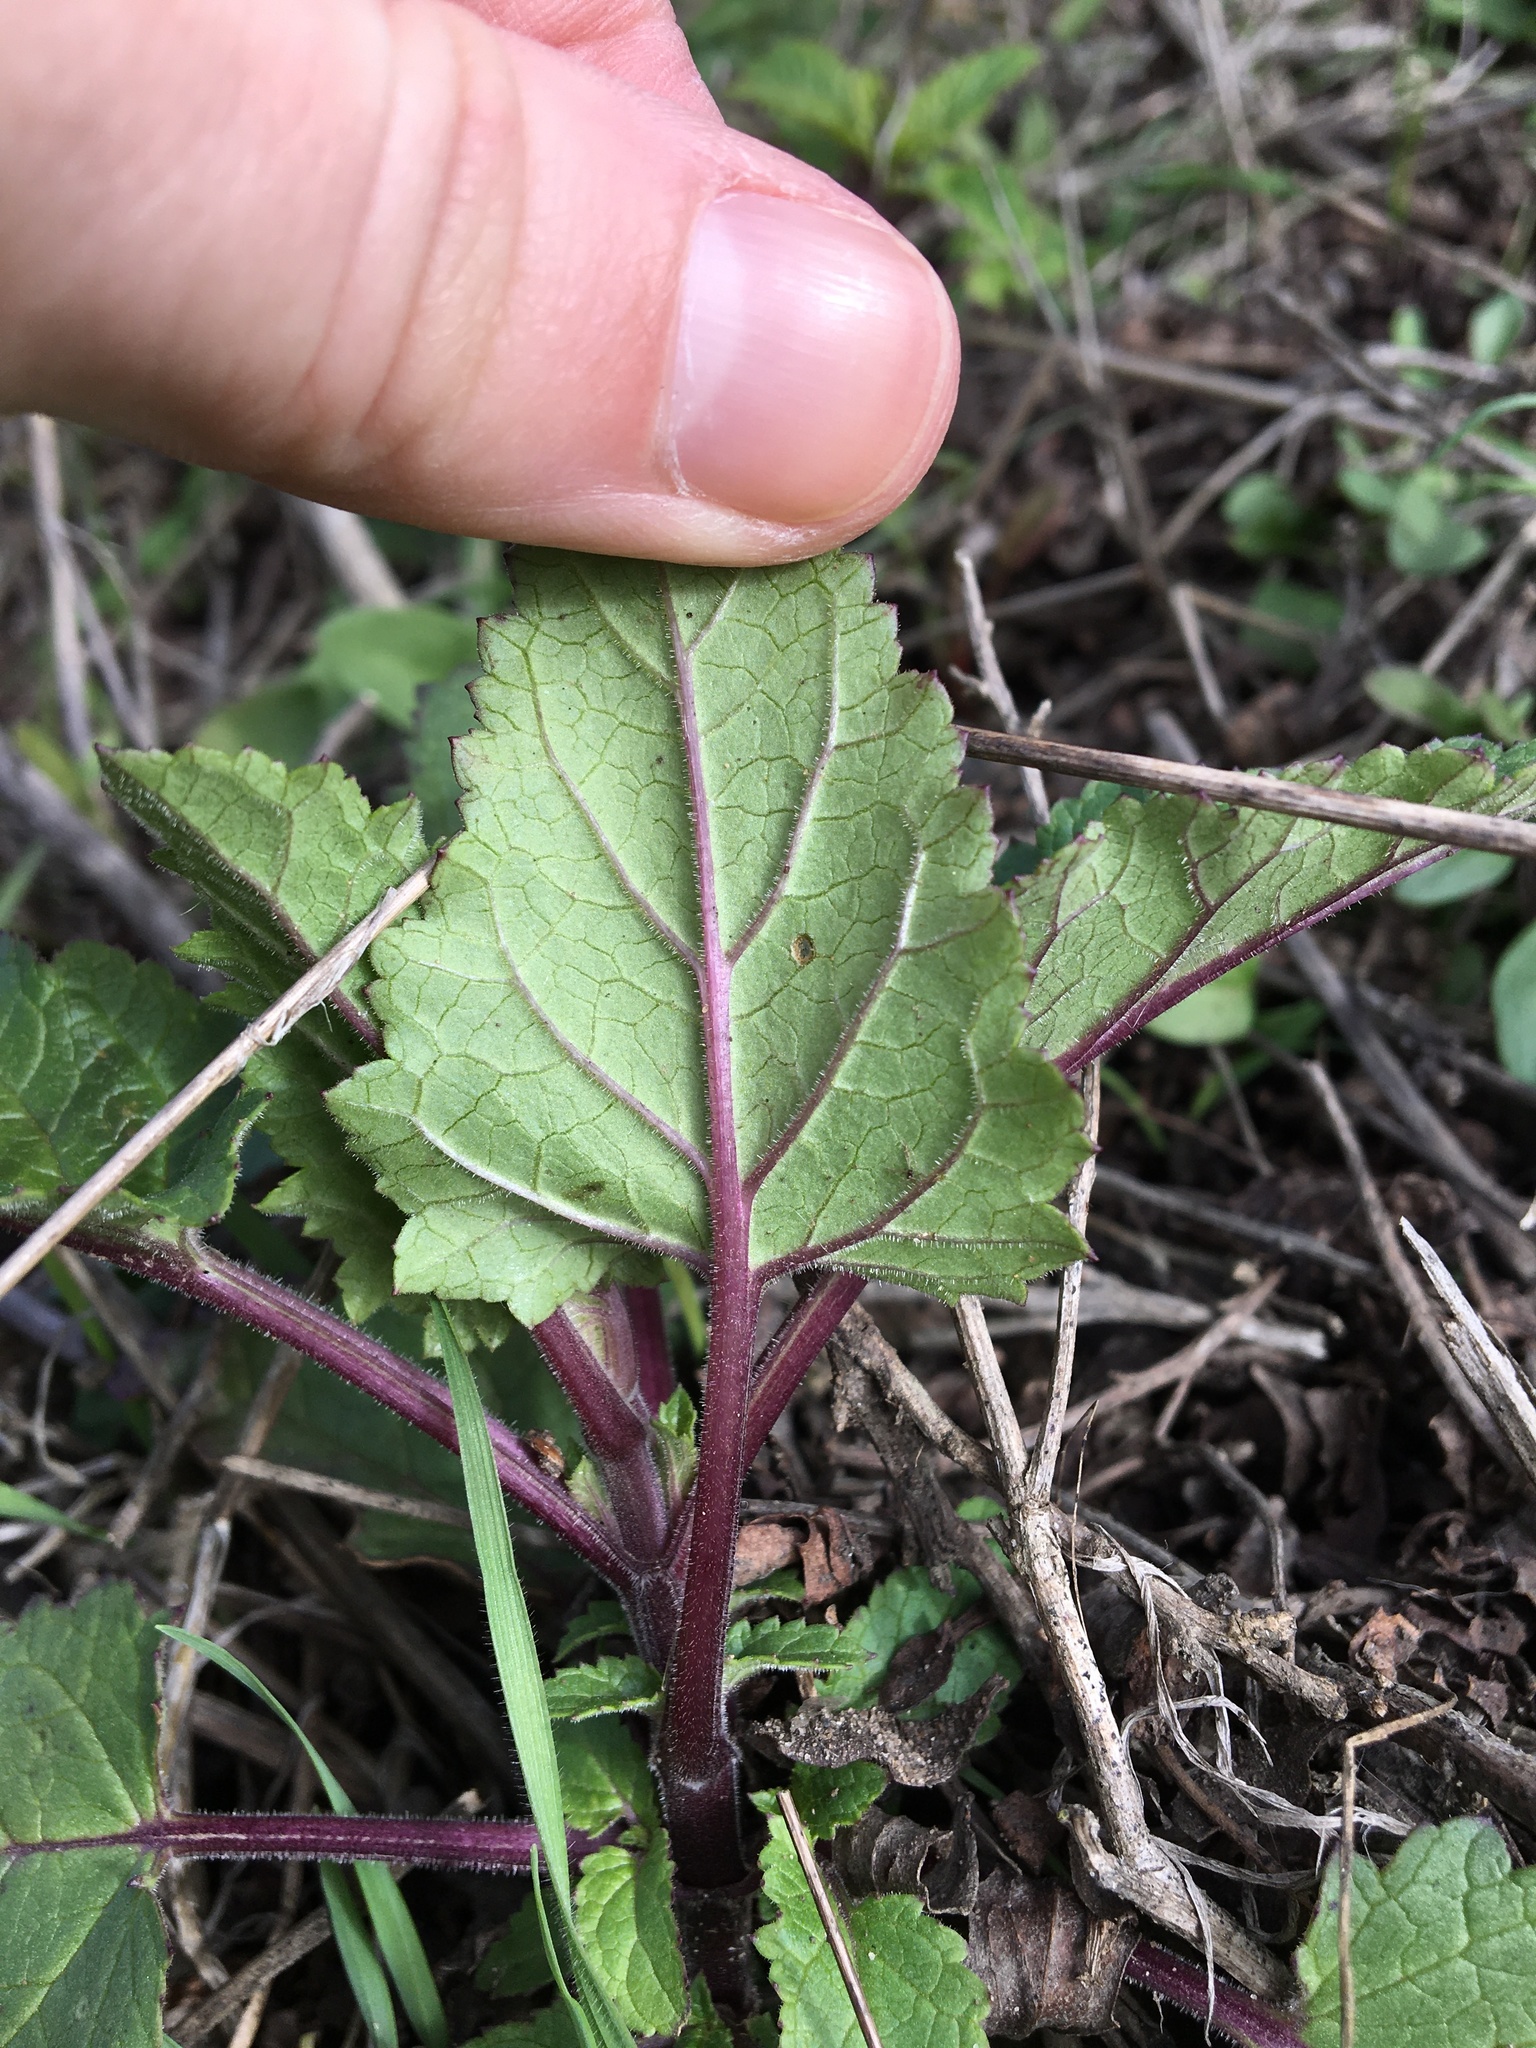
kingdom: Plantae
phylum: Tracheophyta
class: Magnoliopsida
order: Lamiales
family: Scrophulariaceae
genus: Scrophularia
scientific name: Scrophularia californica
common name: California figwort
